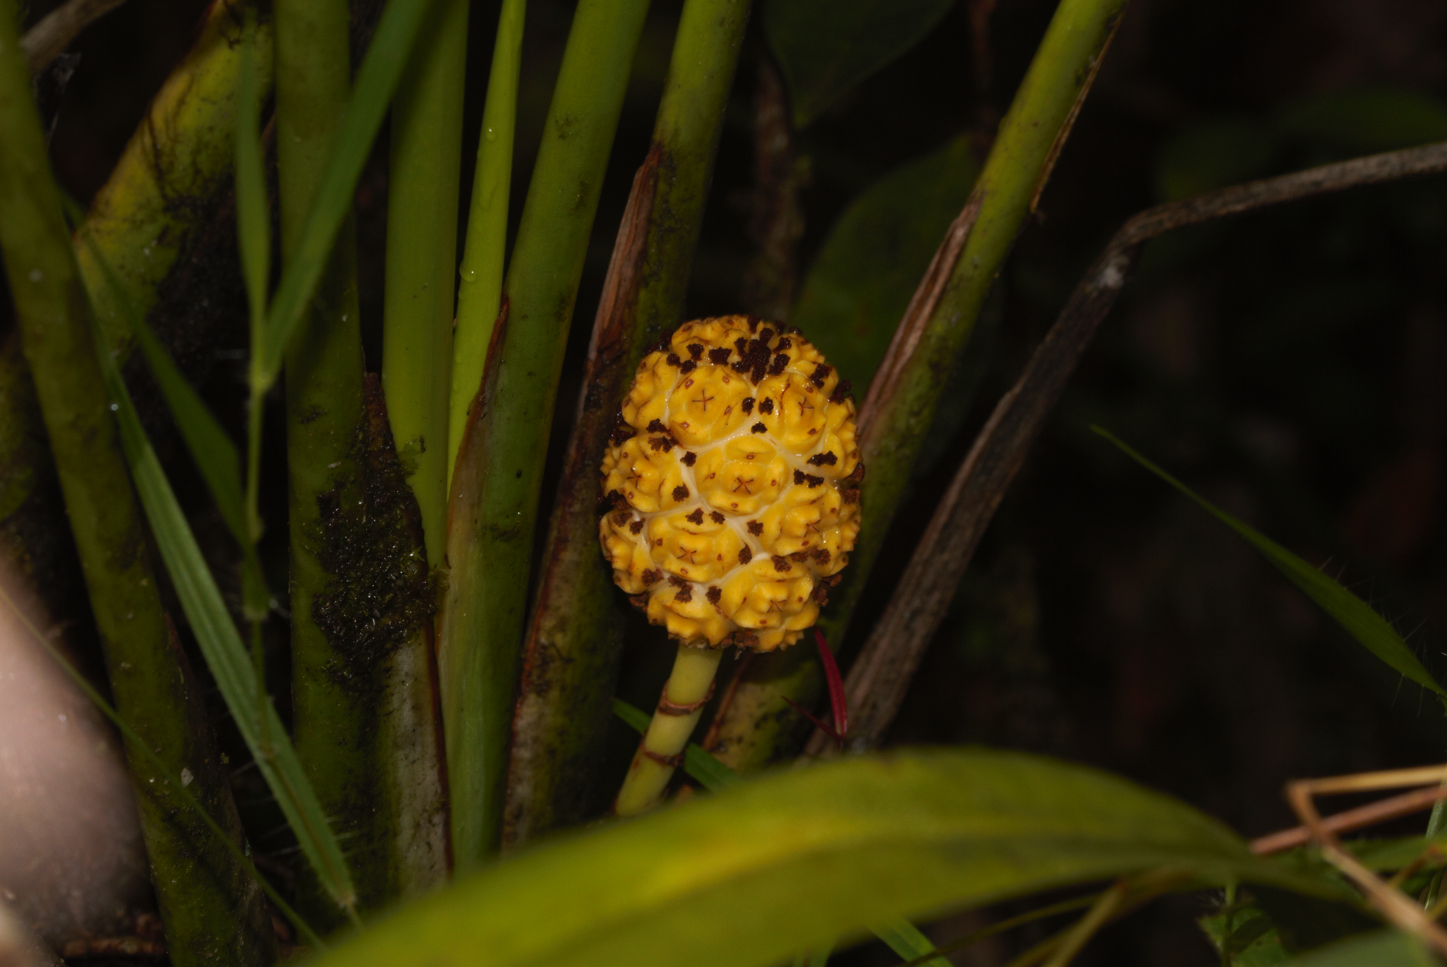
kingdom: Plantae
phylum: Tracheophyta
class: Liliopsida
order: Pandanales
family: Cyclanthaceae
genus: Stelestylis
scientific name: Stelestylis surinamensis
